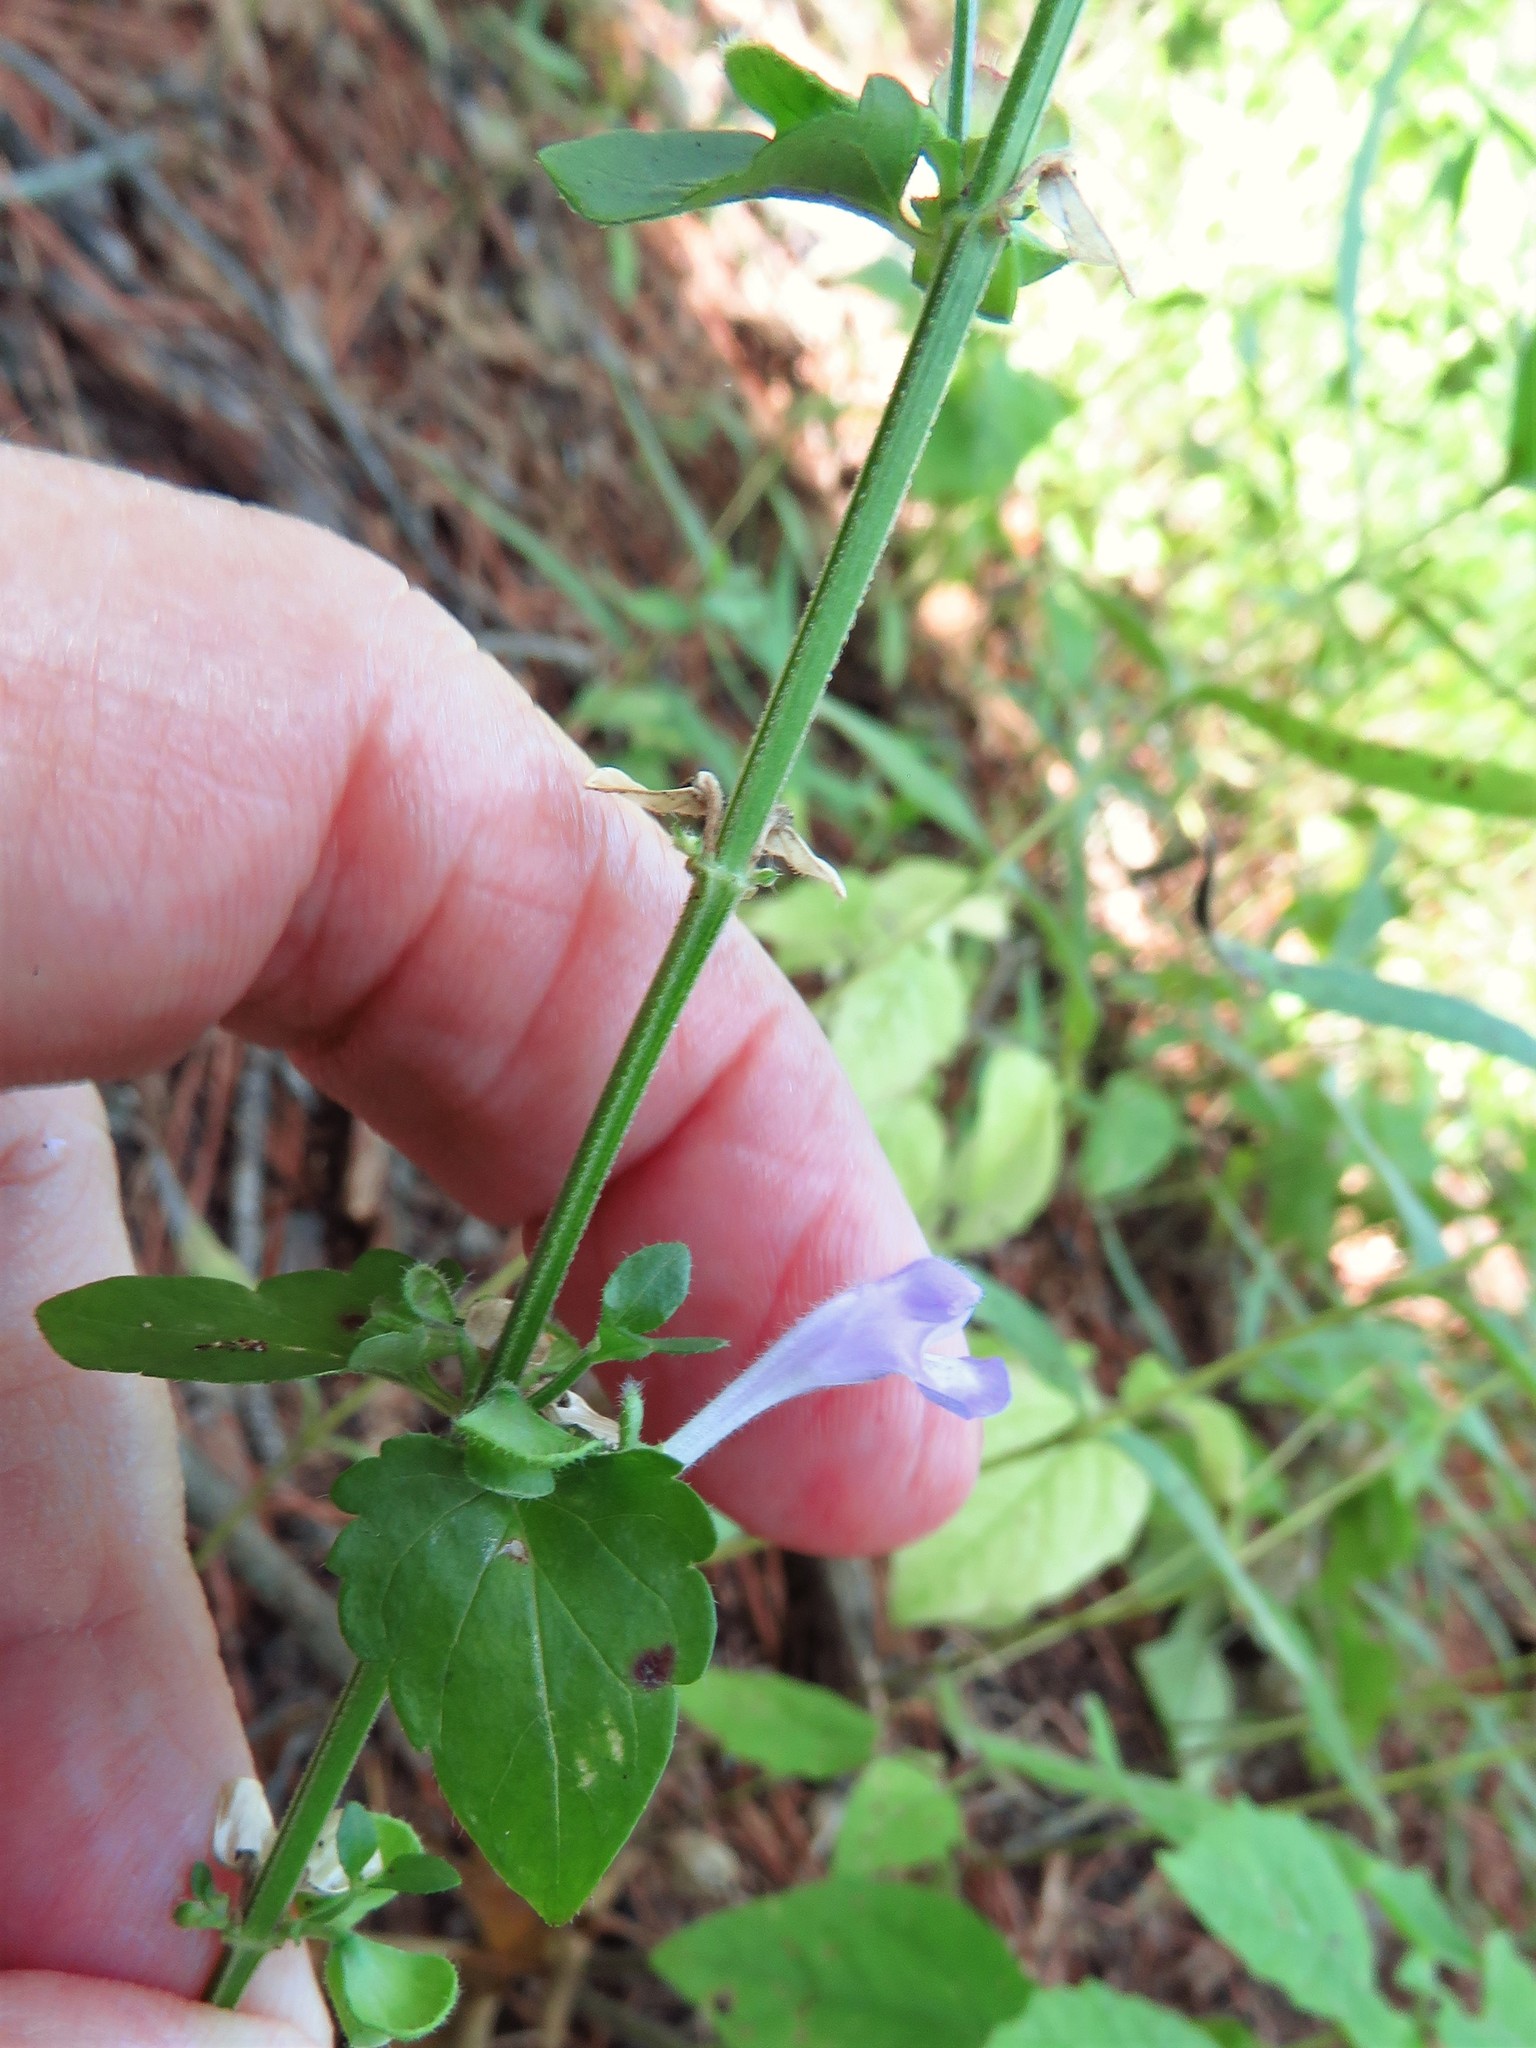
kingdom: Plantae
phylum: Tracheophyta
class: Magnoliopsida
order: Lamiales
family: Lamiaceae
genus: Scutellaria
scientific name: Scutellaria cardiophylla
